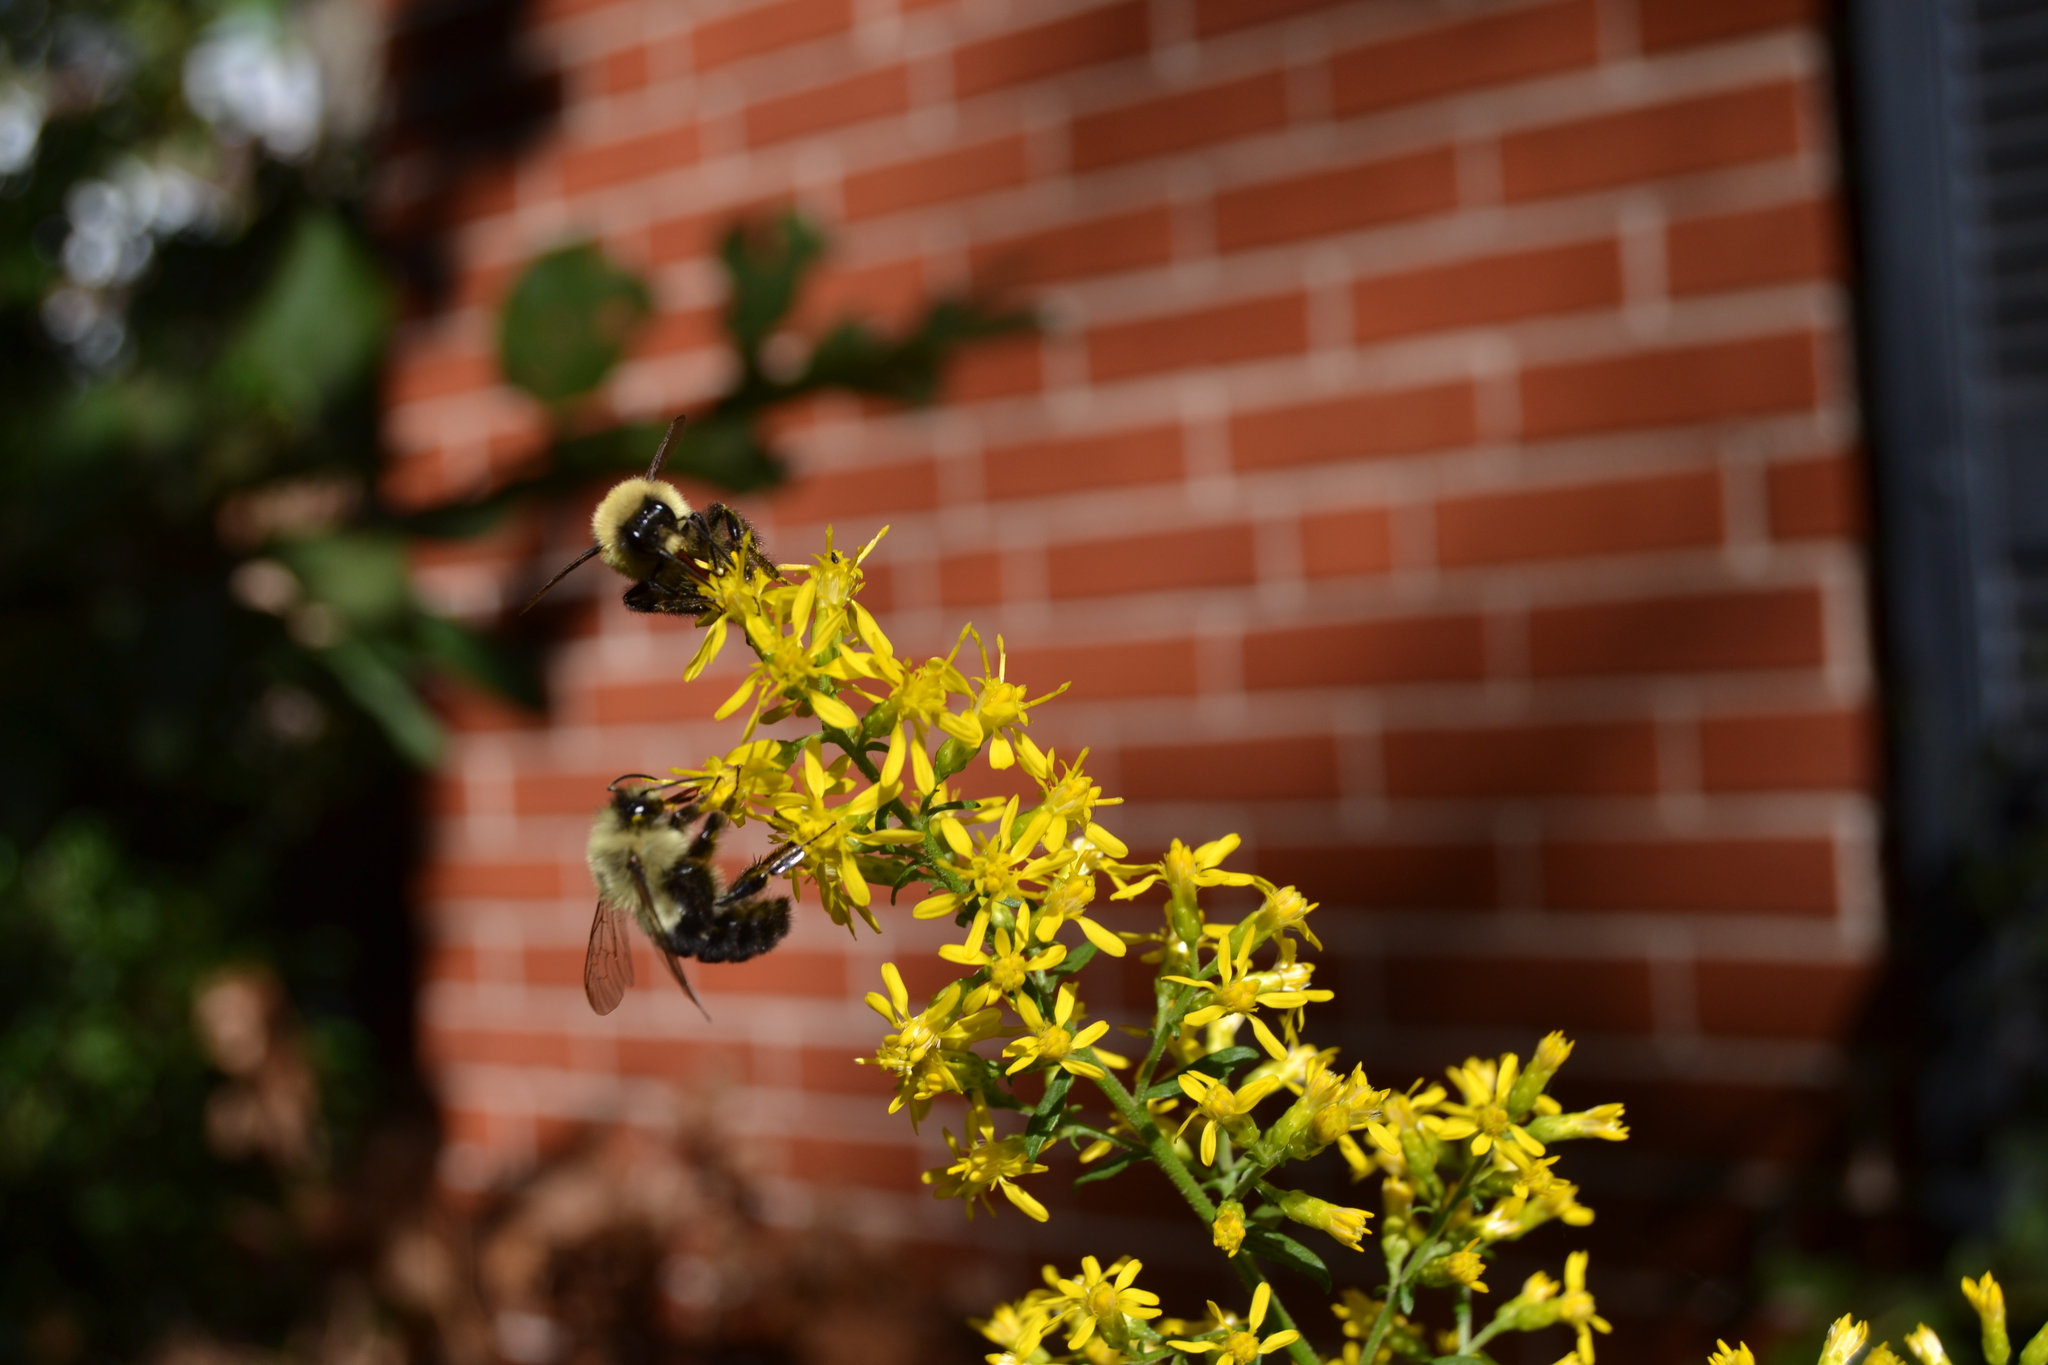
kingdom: Animalia
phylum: Arthropoda
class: Insecta
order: Hymenoptera
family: Apidae
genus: Bombus
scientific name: Bombus impatiens
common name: Common eastern bumble bee
